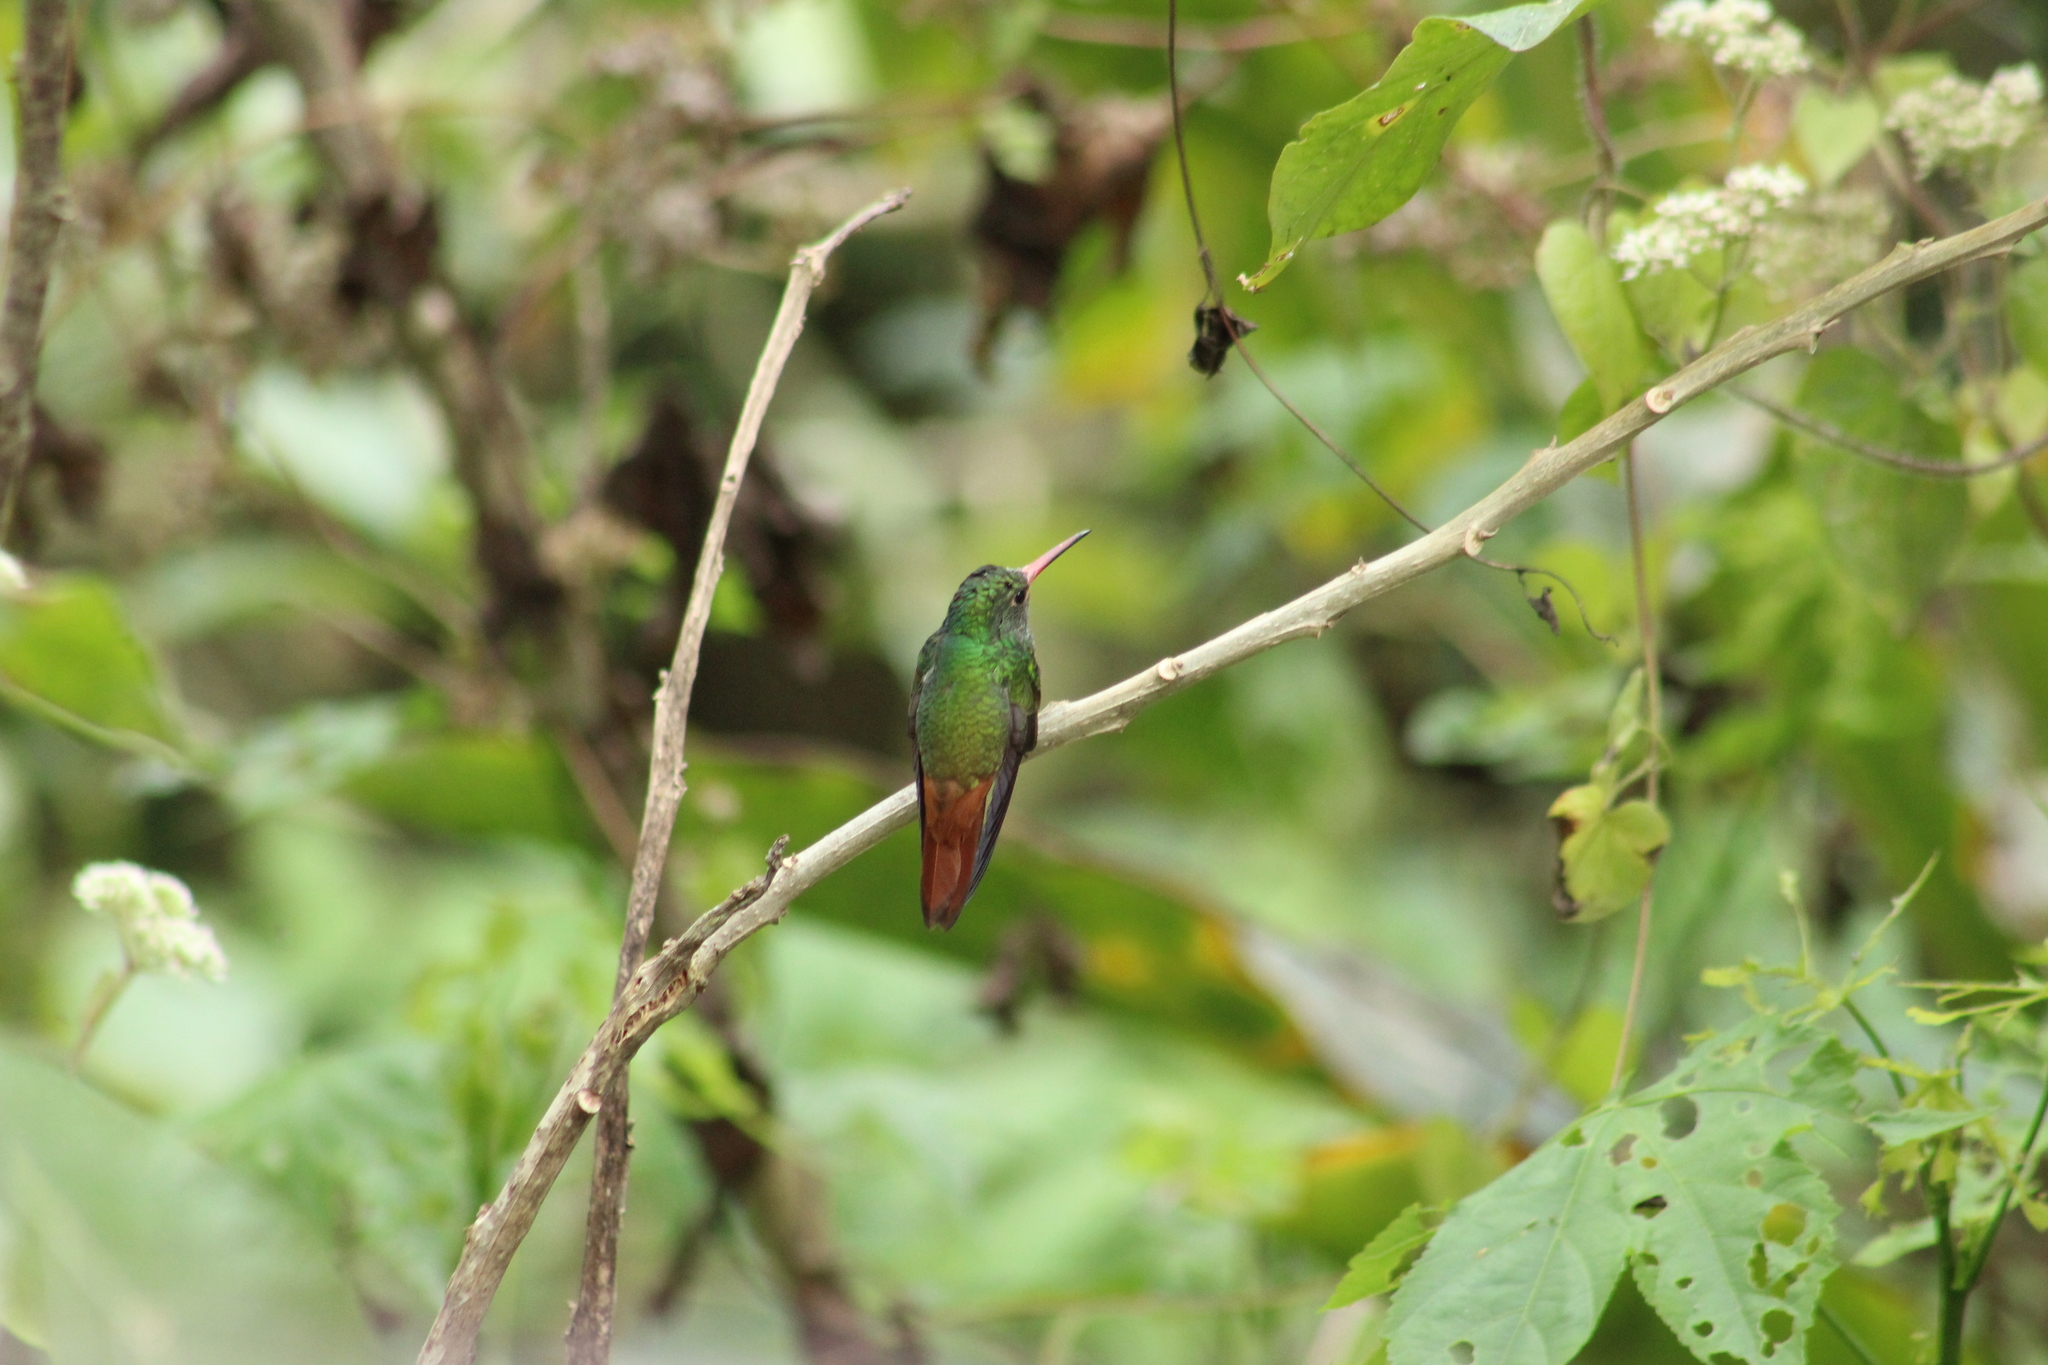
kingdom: Animalia
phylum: Chordata
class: Aves
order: Apodiformes
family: Trochilidae
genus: Amazilia
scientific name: Amazilia tzacatl
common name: Rufous-tailed hummingbird
